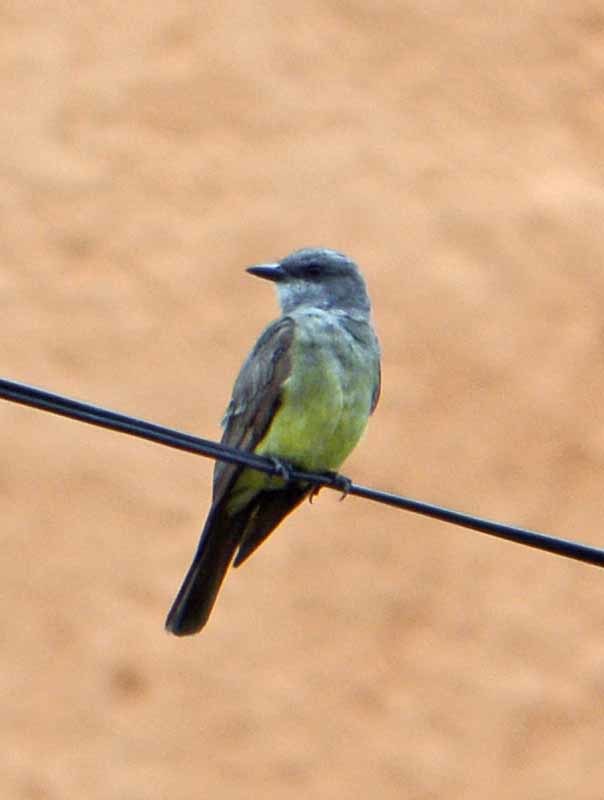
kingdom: Animalia
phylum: Chordata
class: Aves
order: Passeriformes
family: Tyrannidae
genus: Tyrannus
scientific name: Tyrannus vociferans
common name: Cassin's kingbird
